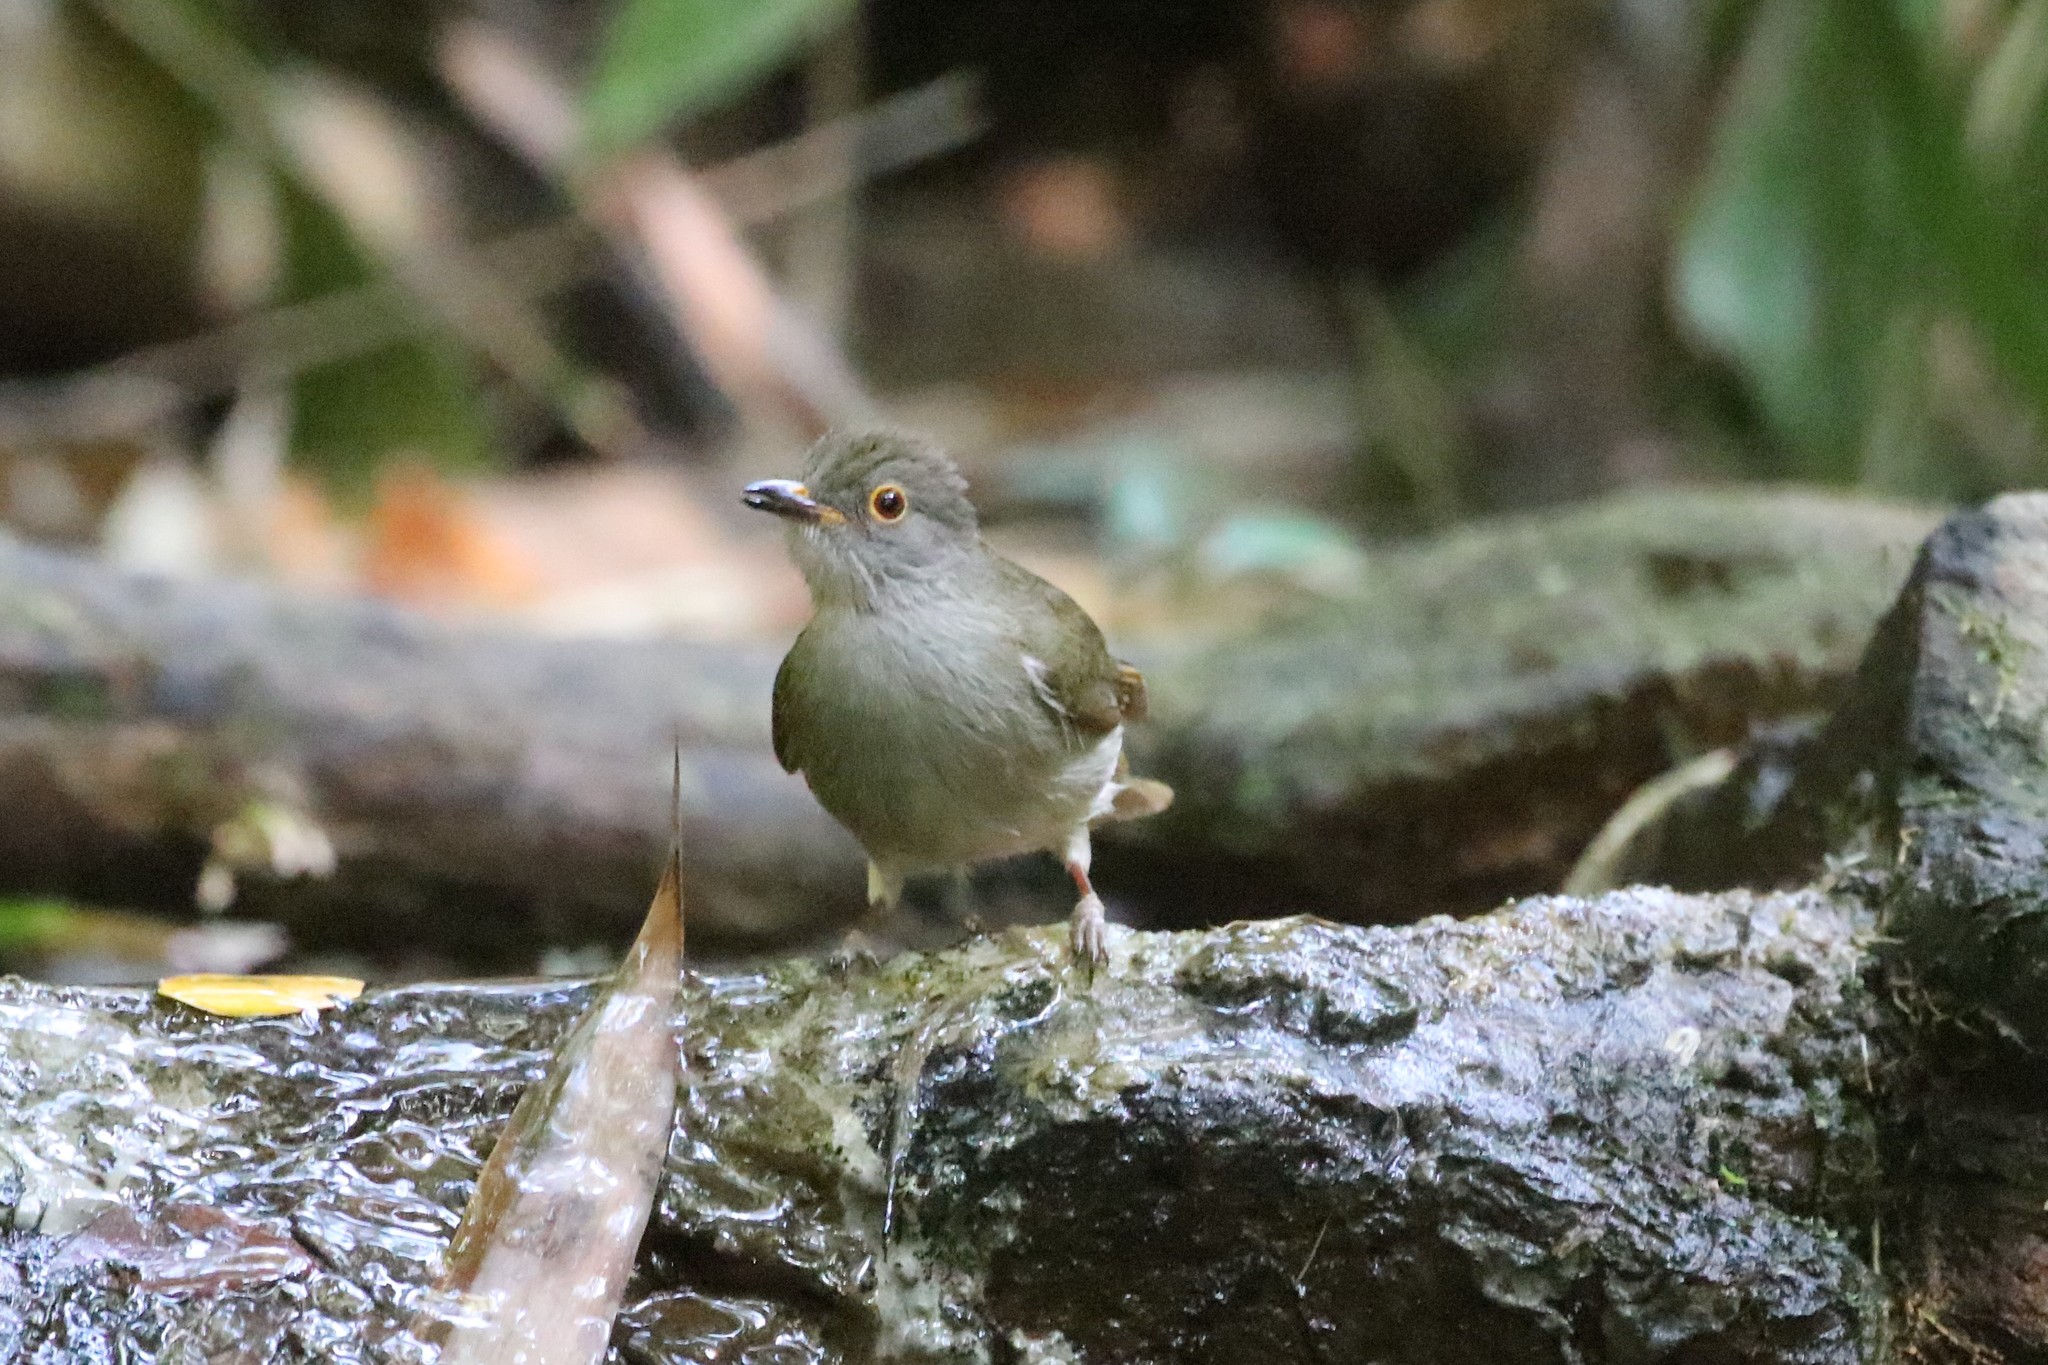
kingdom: Animalia
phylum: Chordata
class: Aves
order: Passeriformes
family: Pycnonotidae
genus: Rubigula
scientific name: Rubigula erythropthalmos
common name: Spectacled bulbul
